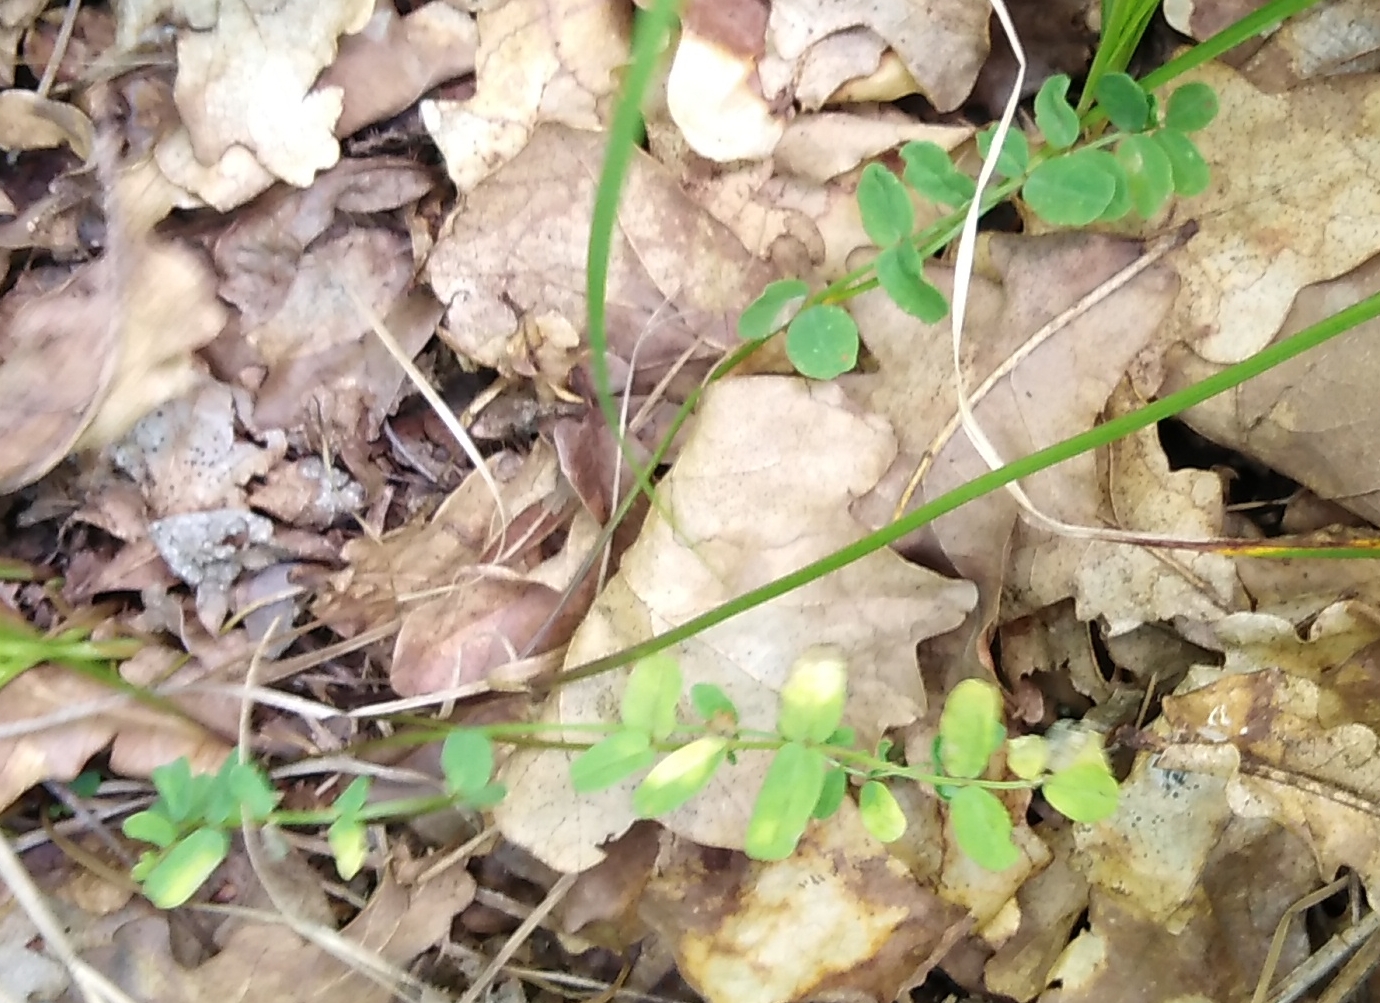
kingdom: Plantae
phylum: Tracheophyta
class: Magnoliopsida
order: Fabales
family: Fabaceae
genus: Coronilla
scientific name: Coronilla varia
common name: Crownvetch
